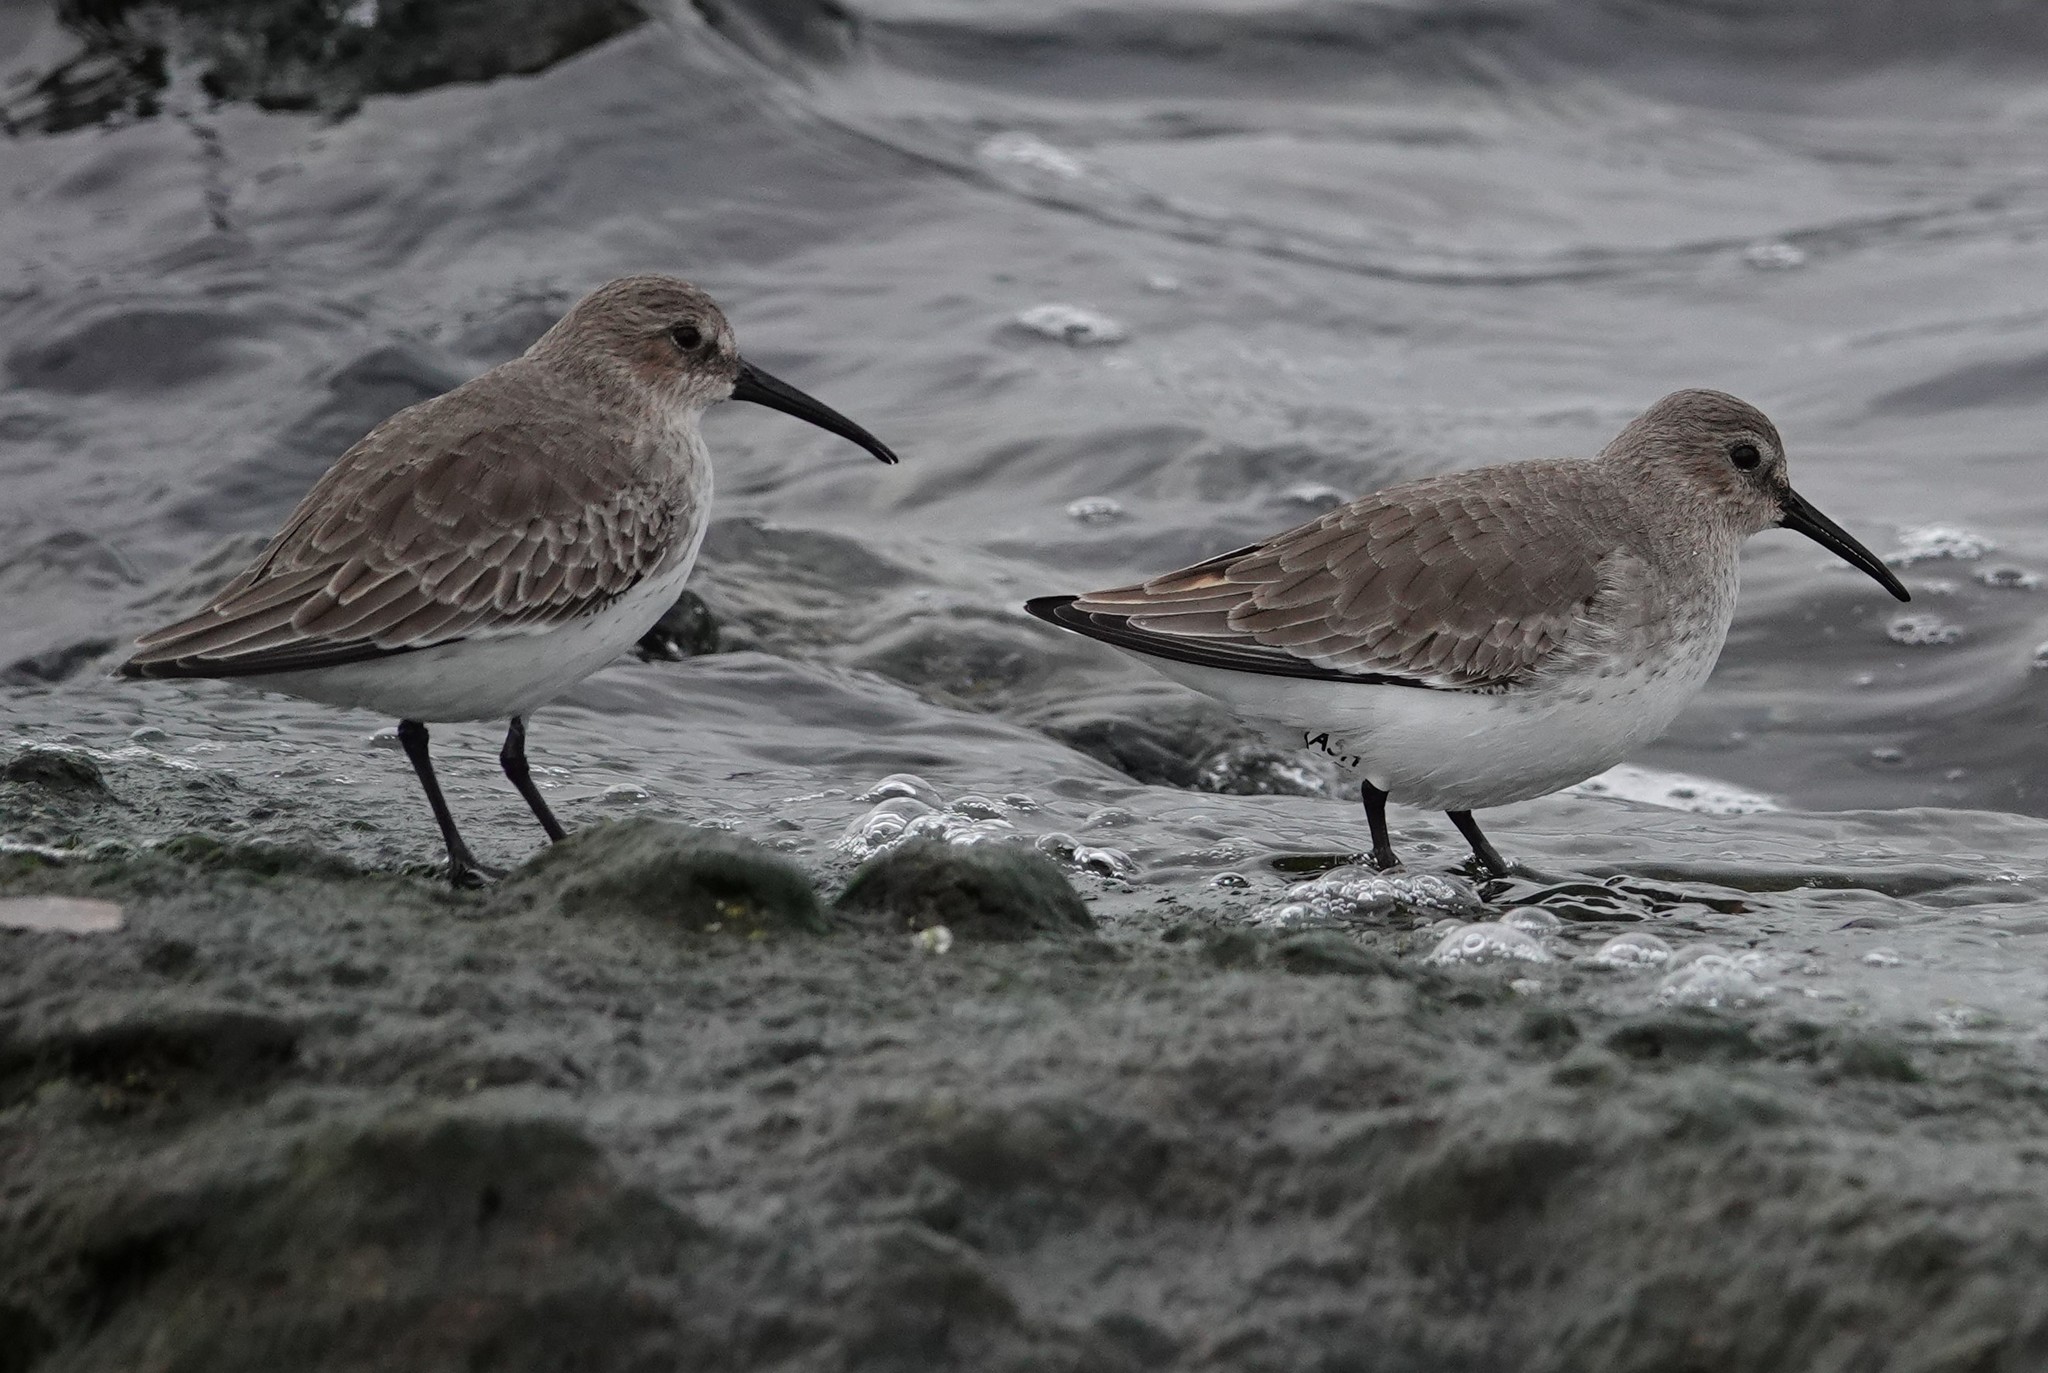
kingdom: Animalia
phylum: Chordata
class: Aves
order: Charadriiformes
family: Scolopacidae
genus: Calidris
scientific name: Calidris alpina
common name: Dunlin
